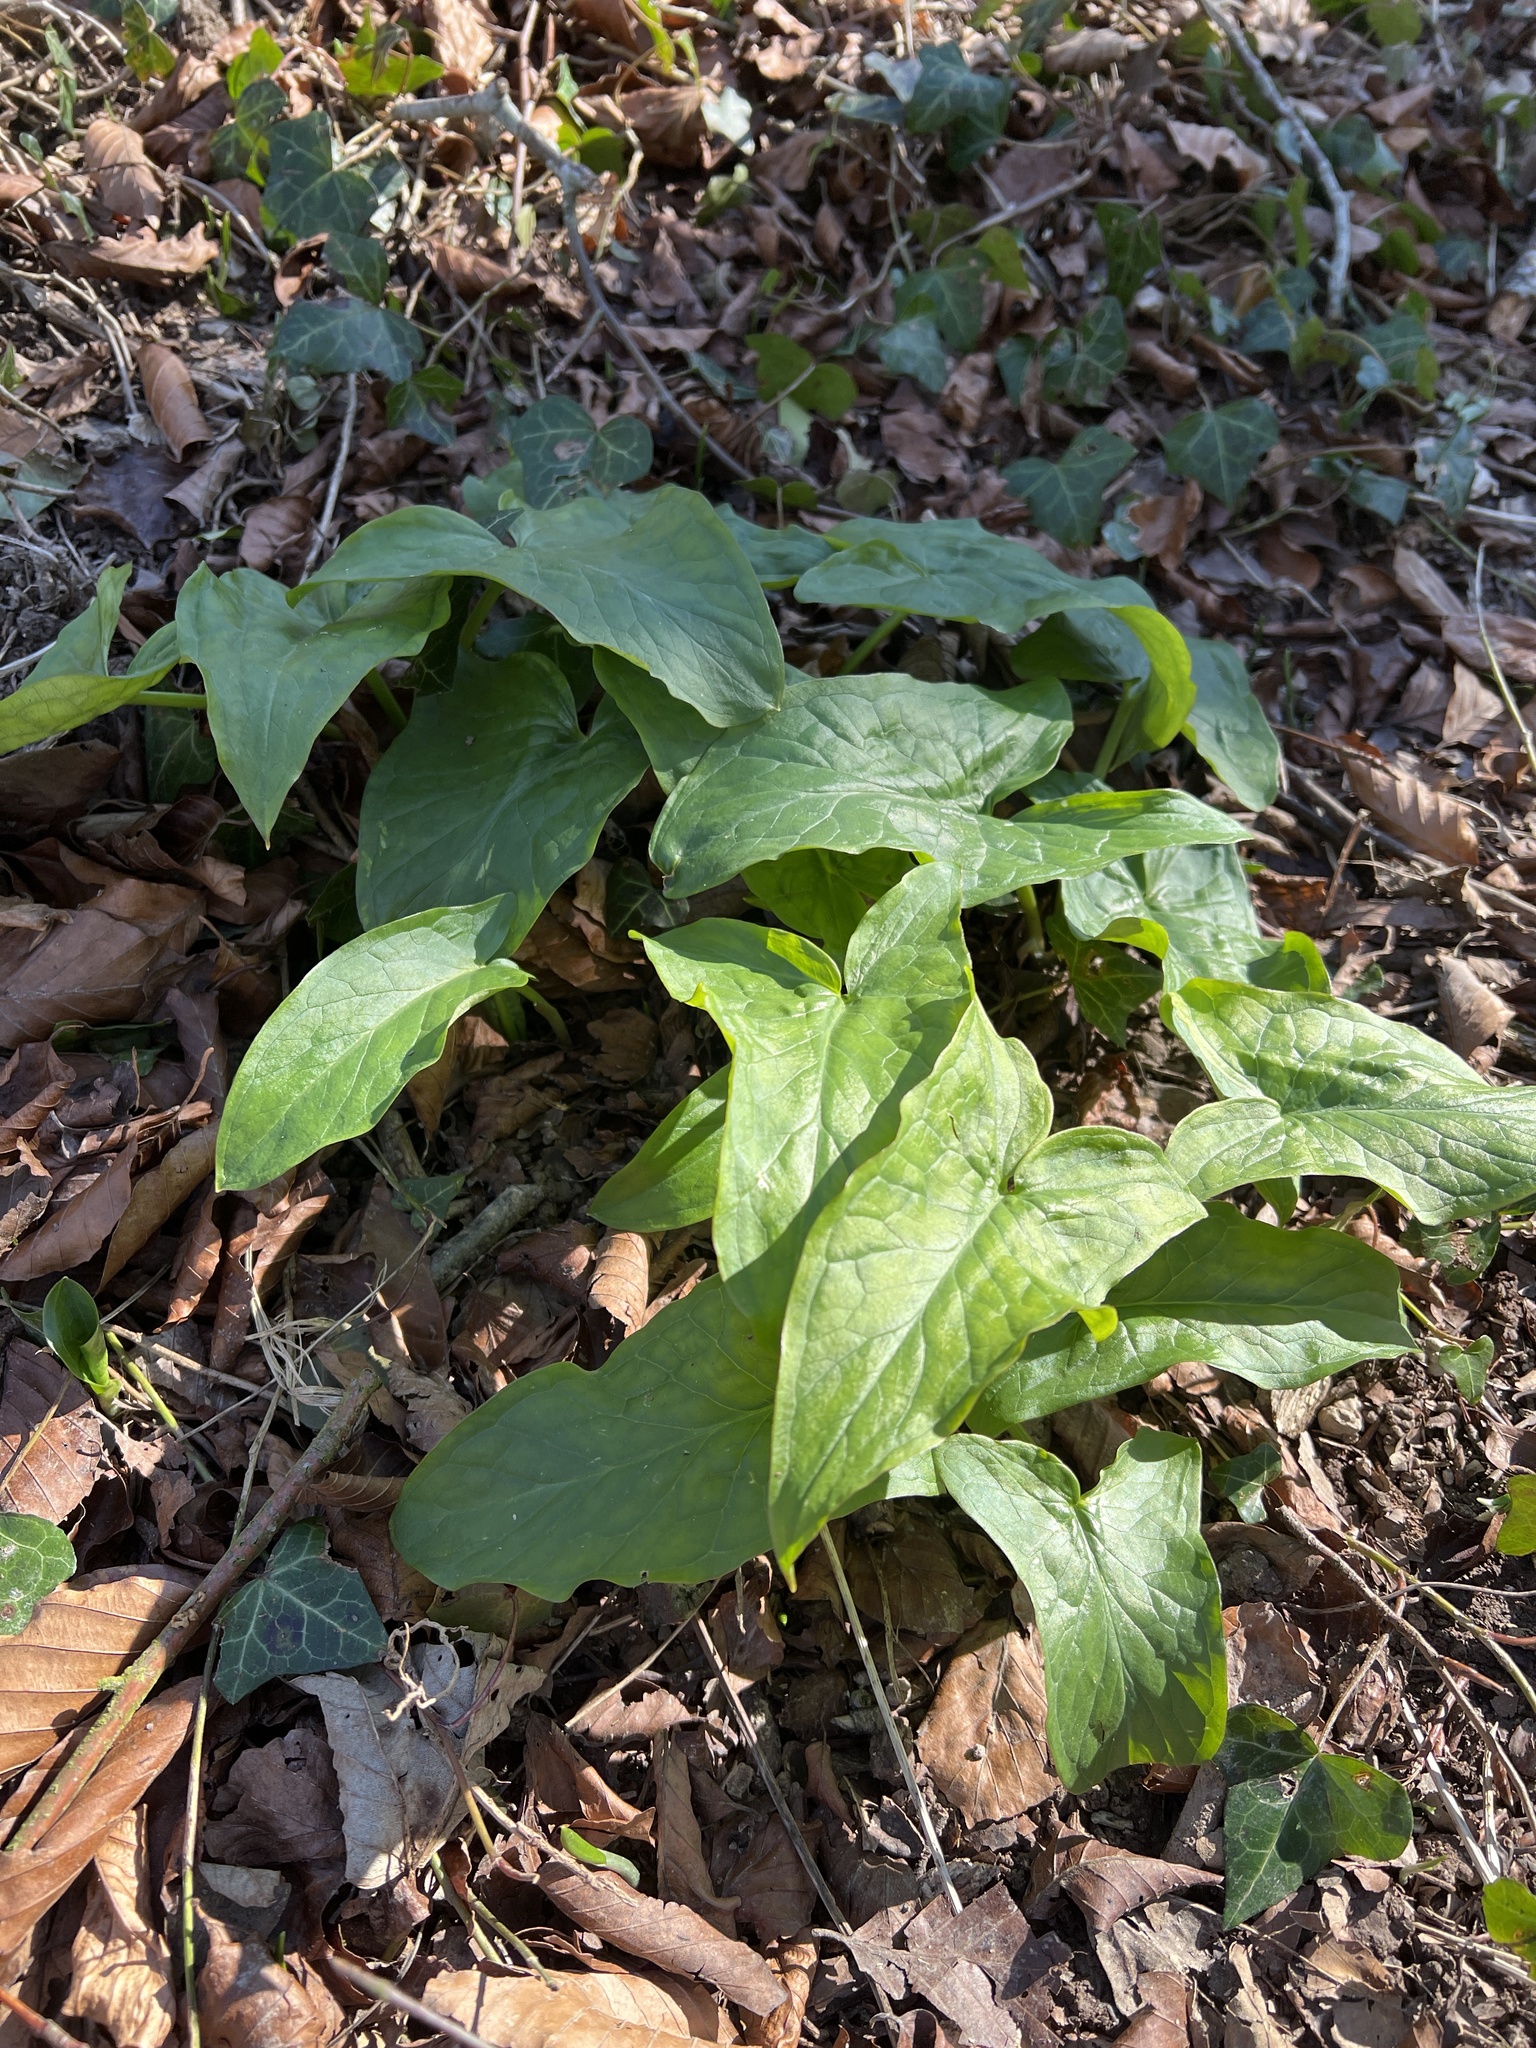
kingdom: Plantae
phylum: Tracheophyta
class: Liliopsida
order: Alismatales
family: Araceae
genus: Arum
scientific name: Arum maculatum
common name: Lords-and-ladies
